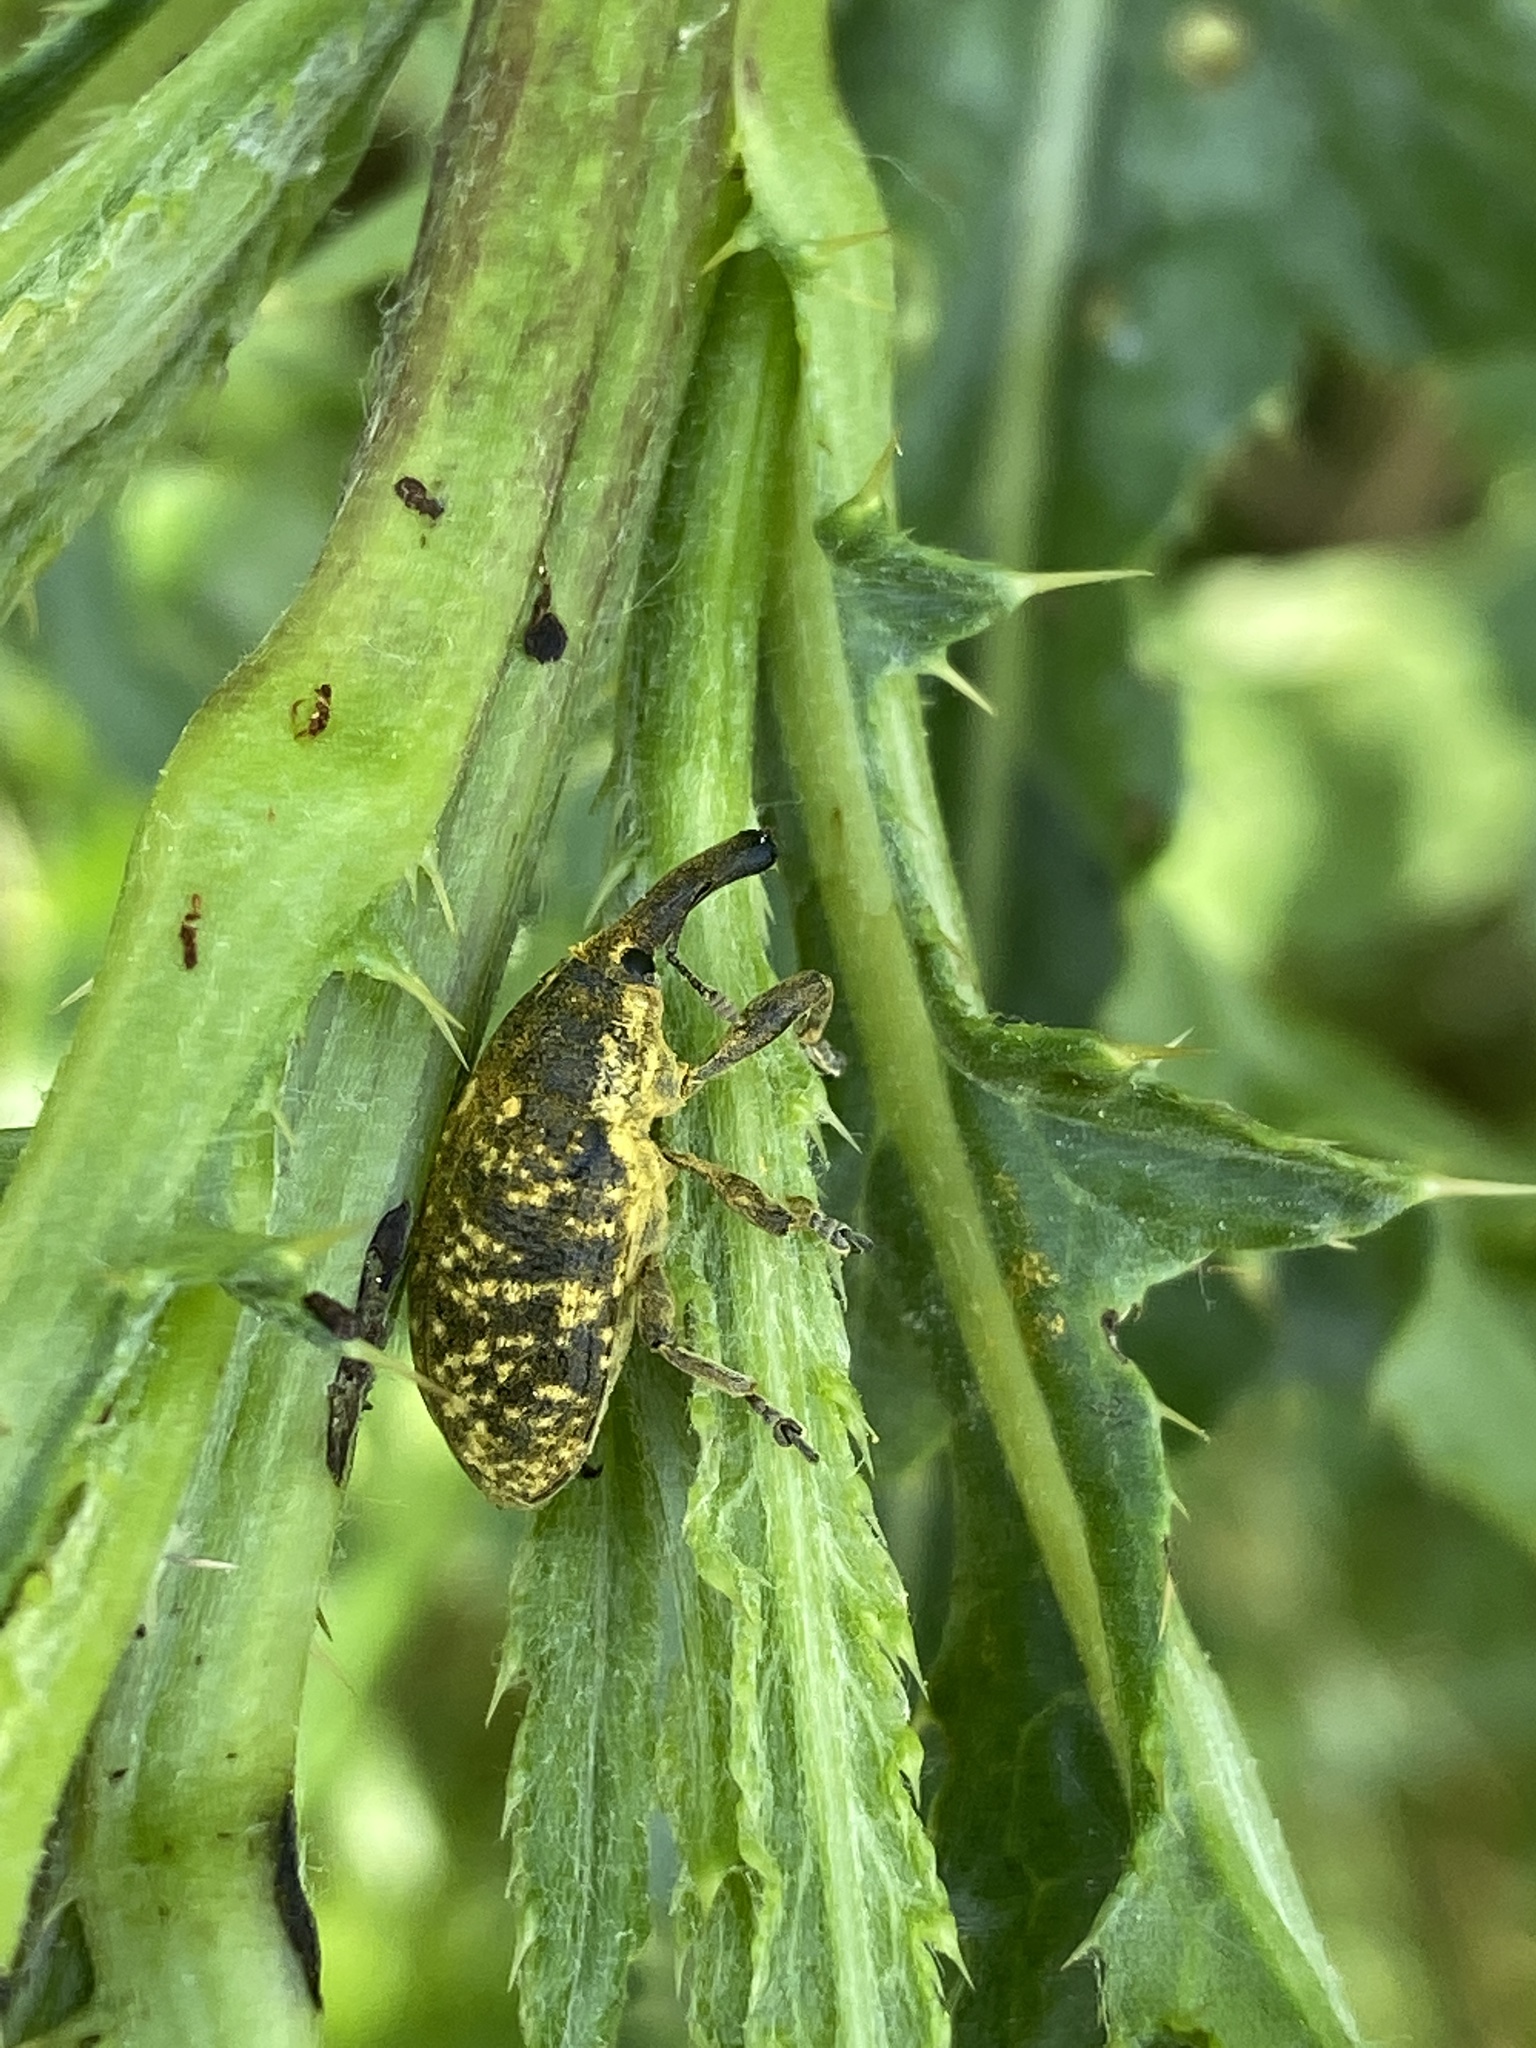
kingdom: Animalia
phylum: Arthropoda
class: Insecta
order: Coleoptera
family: Curculionidae
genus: Larinus
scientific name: Larinus sturnus
